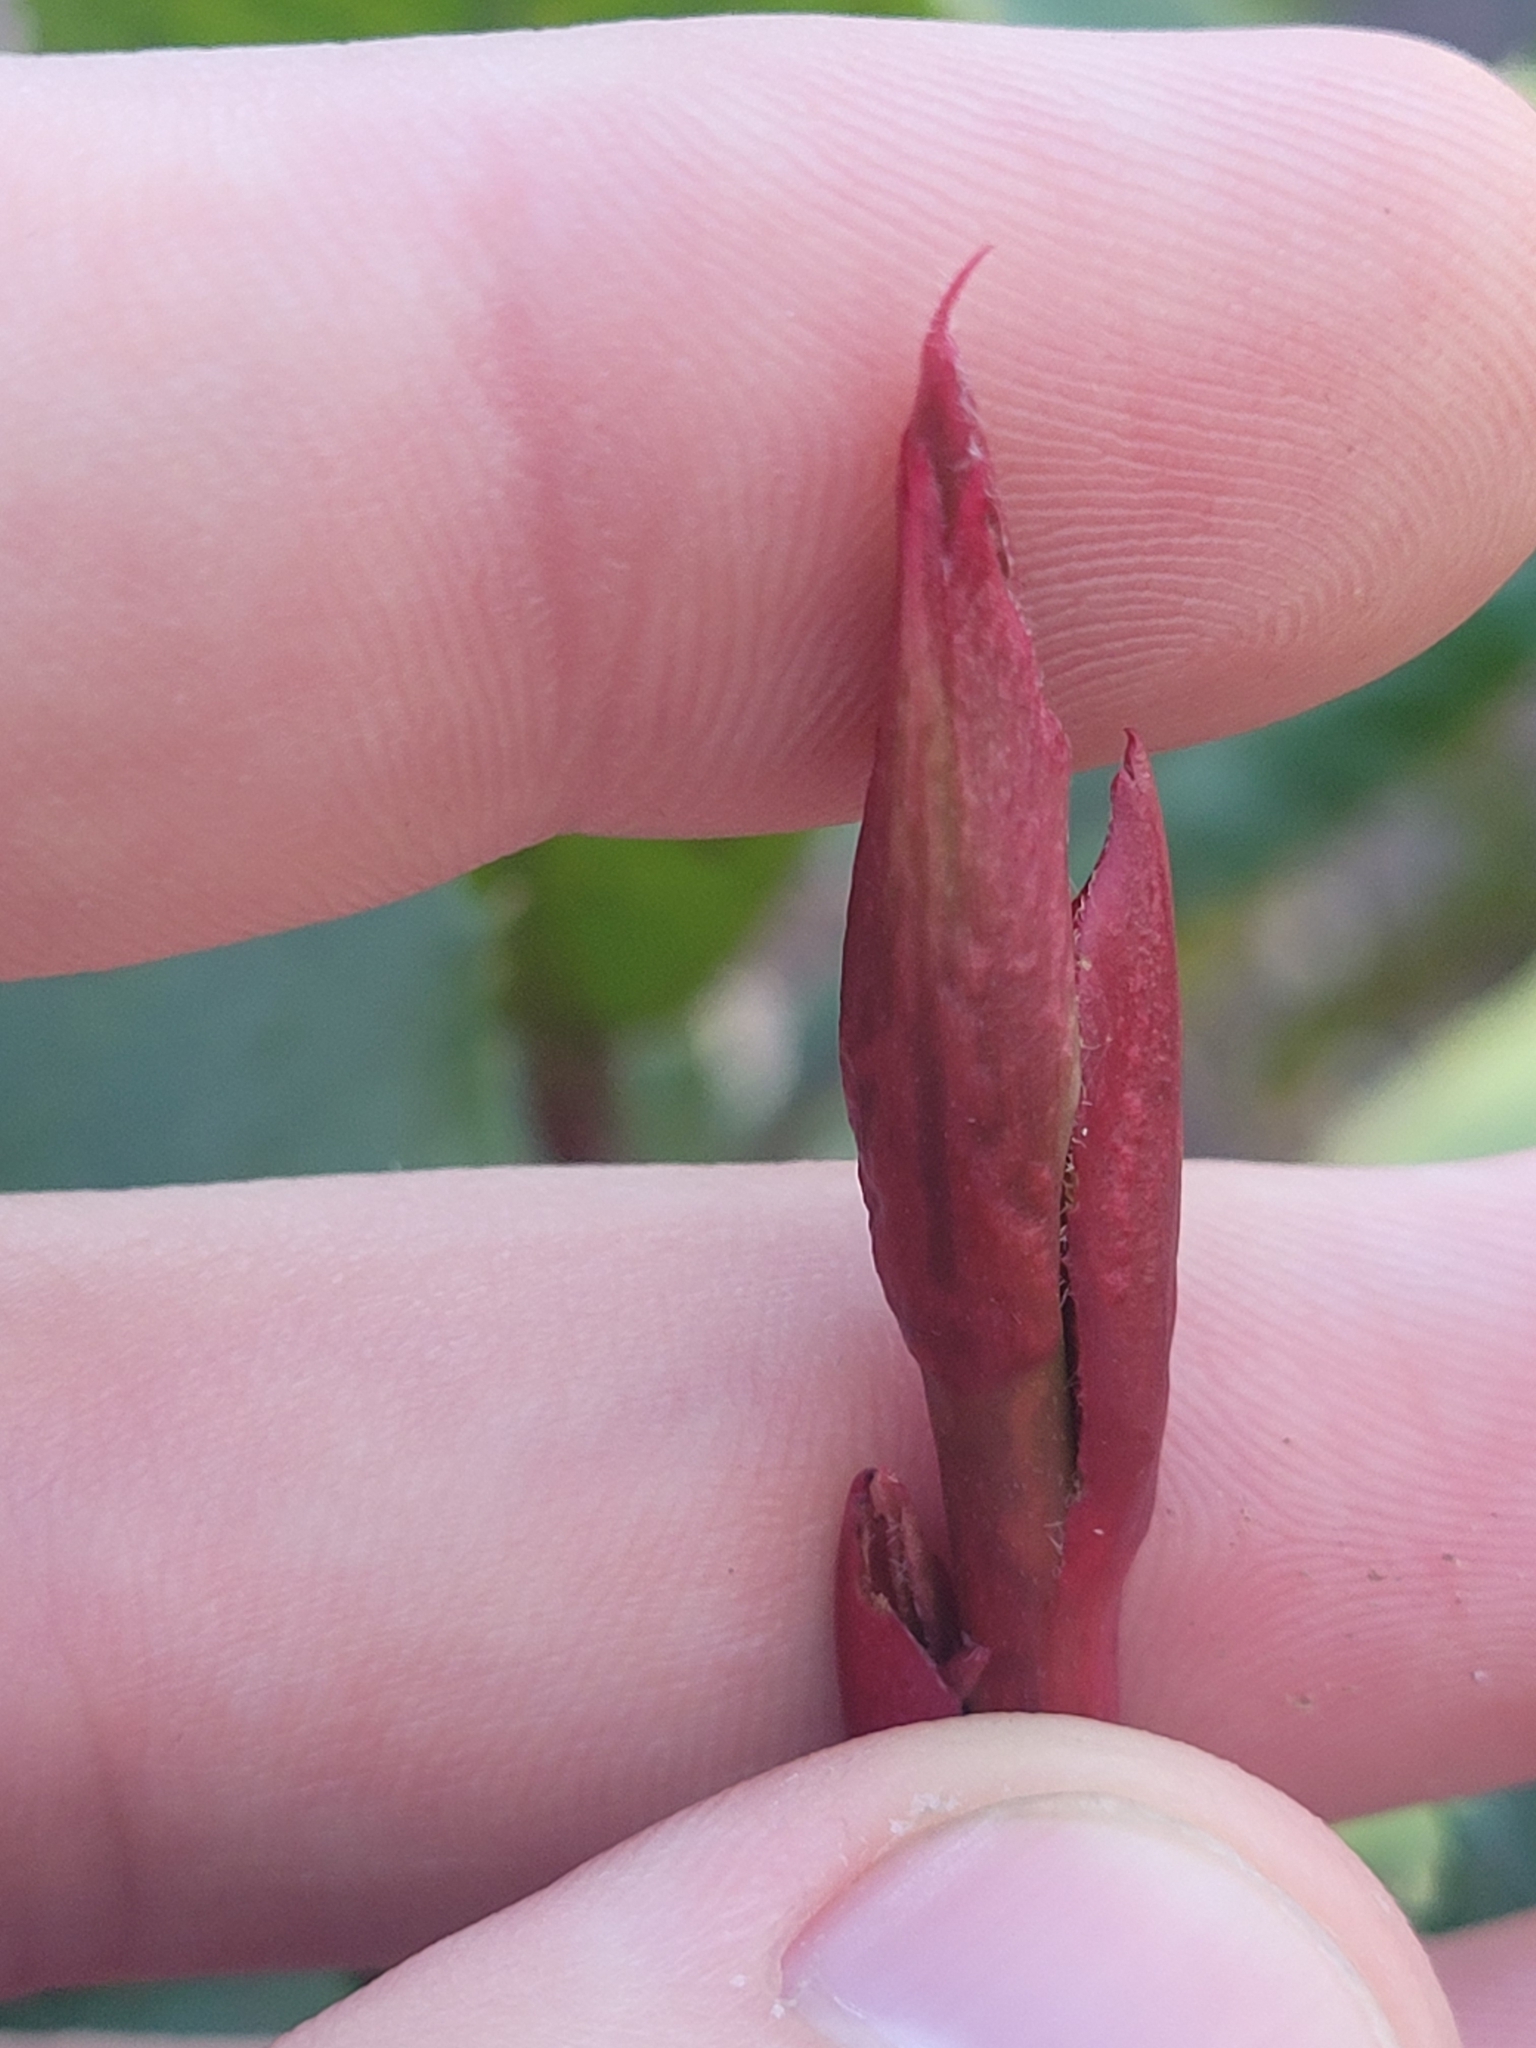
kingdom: Plantae
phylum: Tracheophyta
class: Magnoliopsida
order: Rosales
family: Rosaceae
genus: Photinia
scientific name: Photinia serratifolia
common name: Taiwanese photinia
